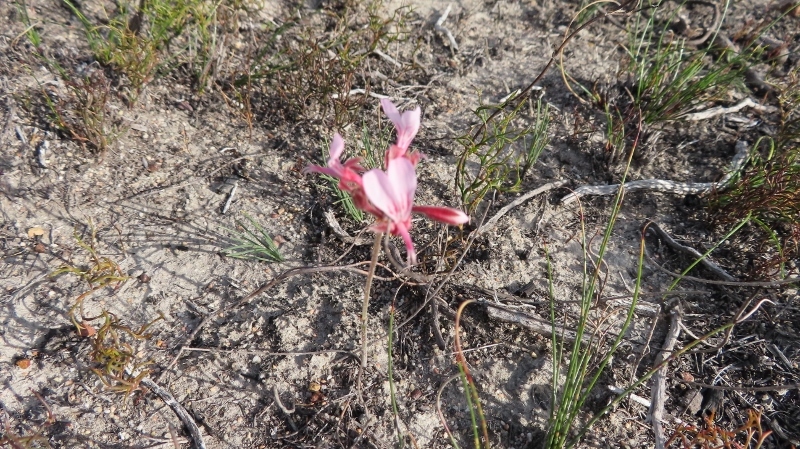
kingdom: Plantae
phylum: Tracheophyta
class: Magnoliopsida
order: Geraniales
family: Geraniaceae
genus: Pelargonium
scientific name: Pelargonium dipetalum
